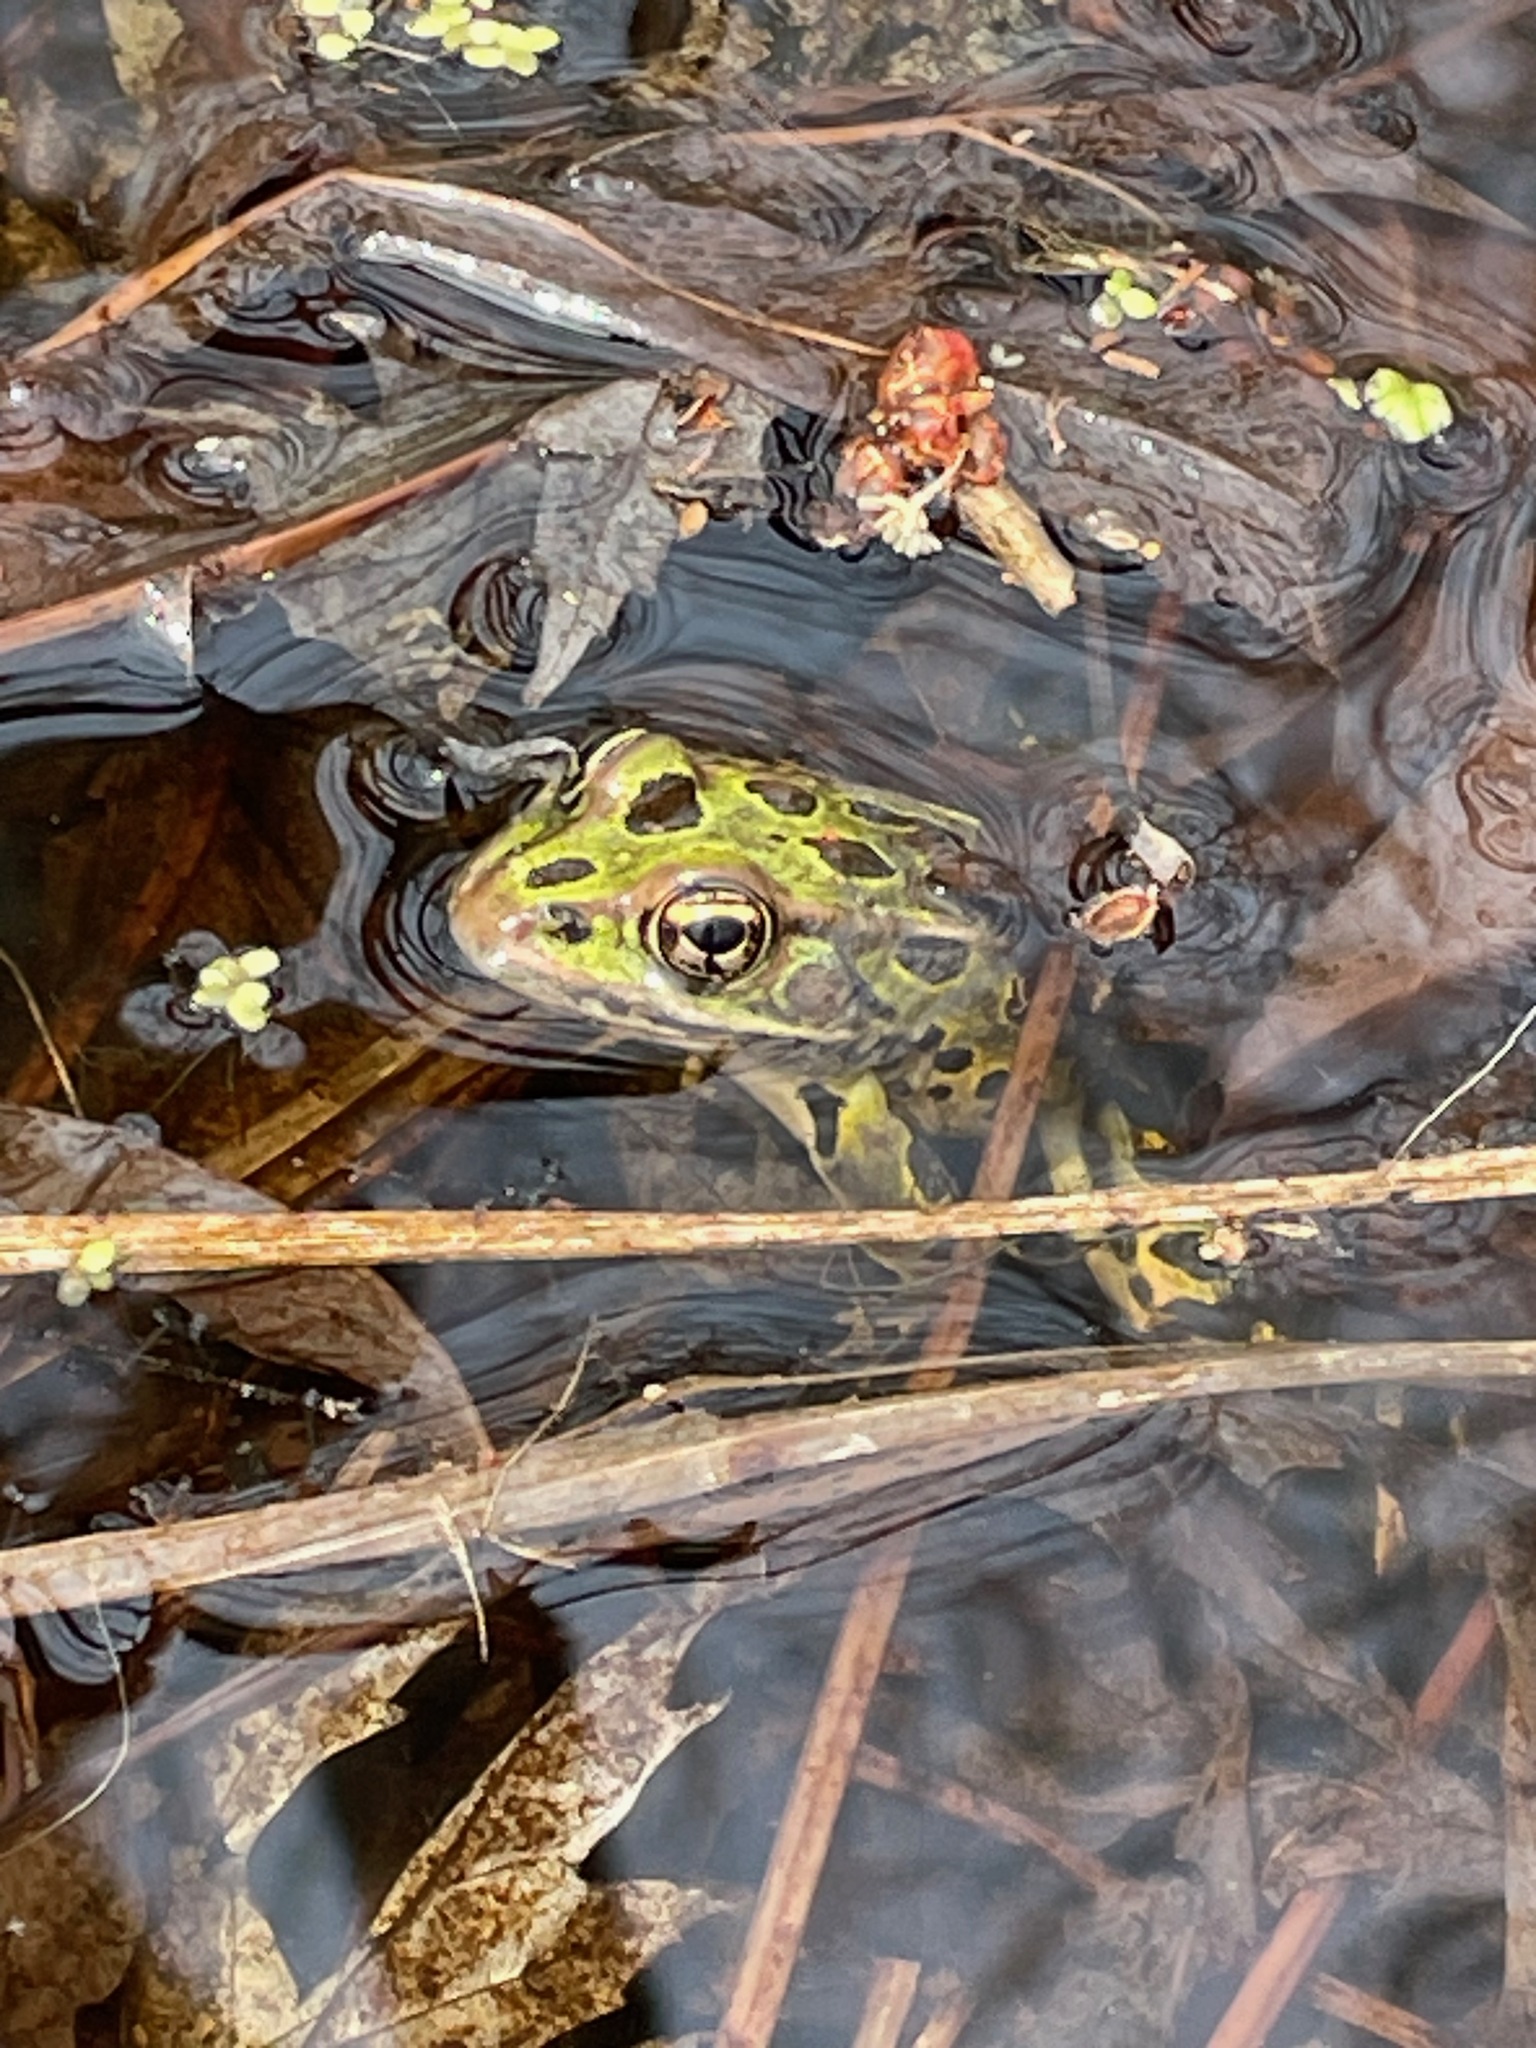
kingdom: Animalia
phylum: Chordata
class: Amphibia
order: Anura
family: Ranidae
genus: Lithobates
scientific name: Lithobates pipiens
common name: Northern leopard frog
